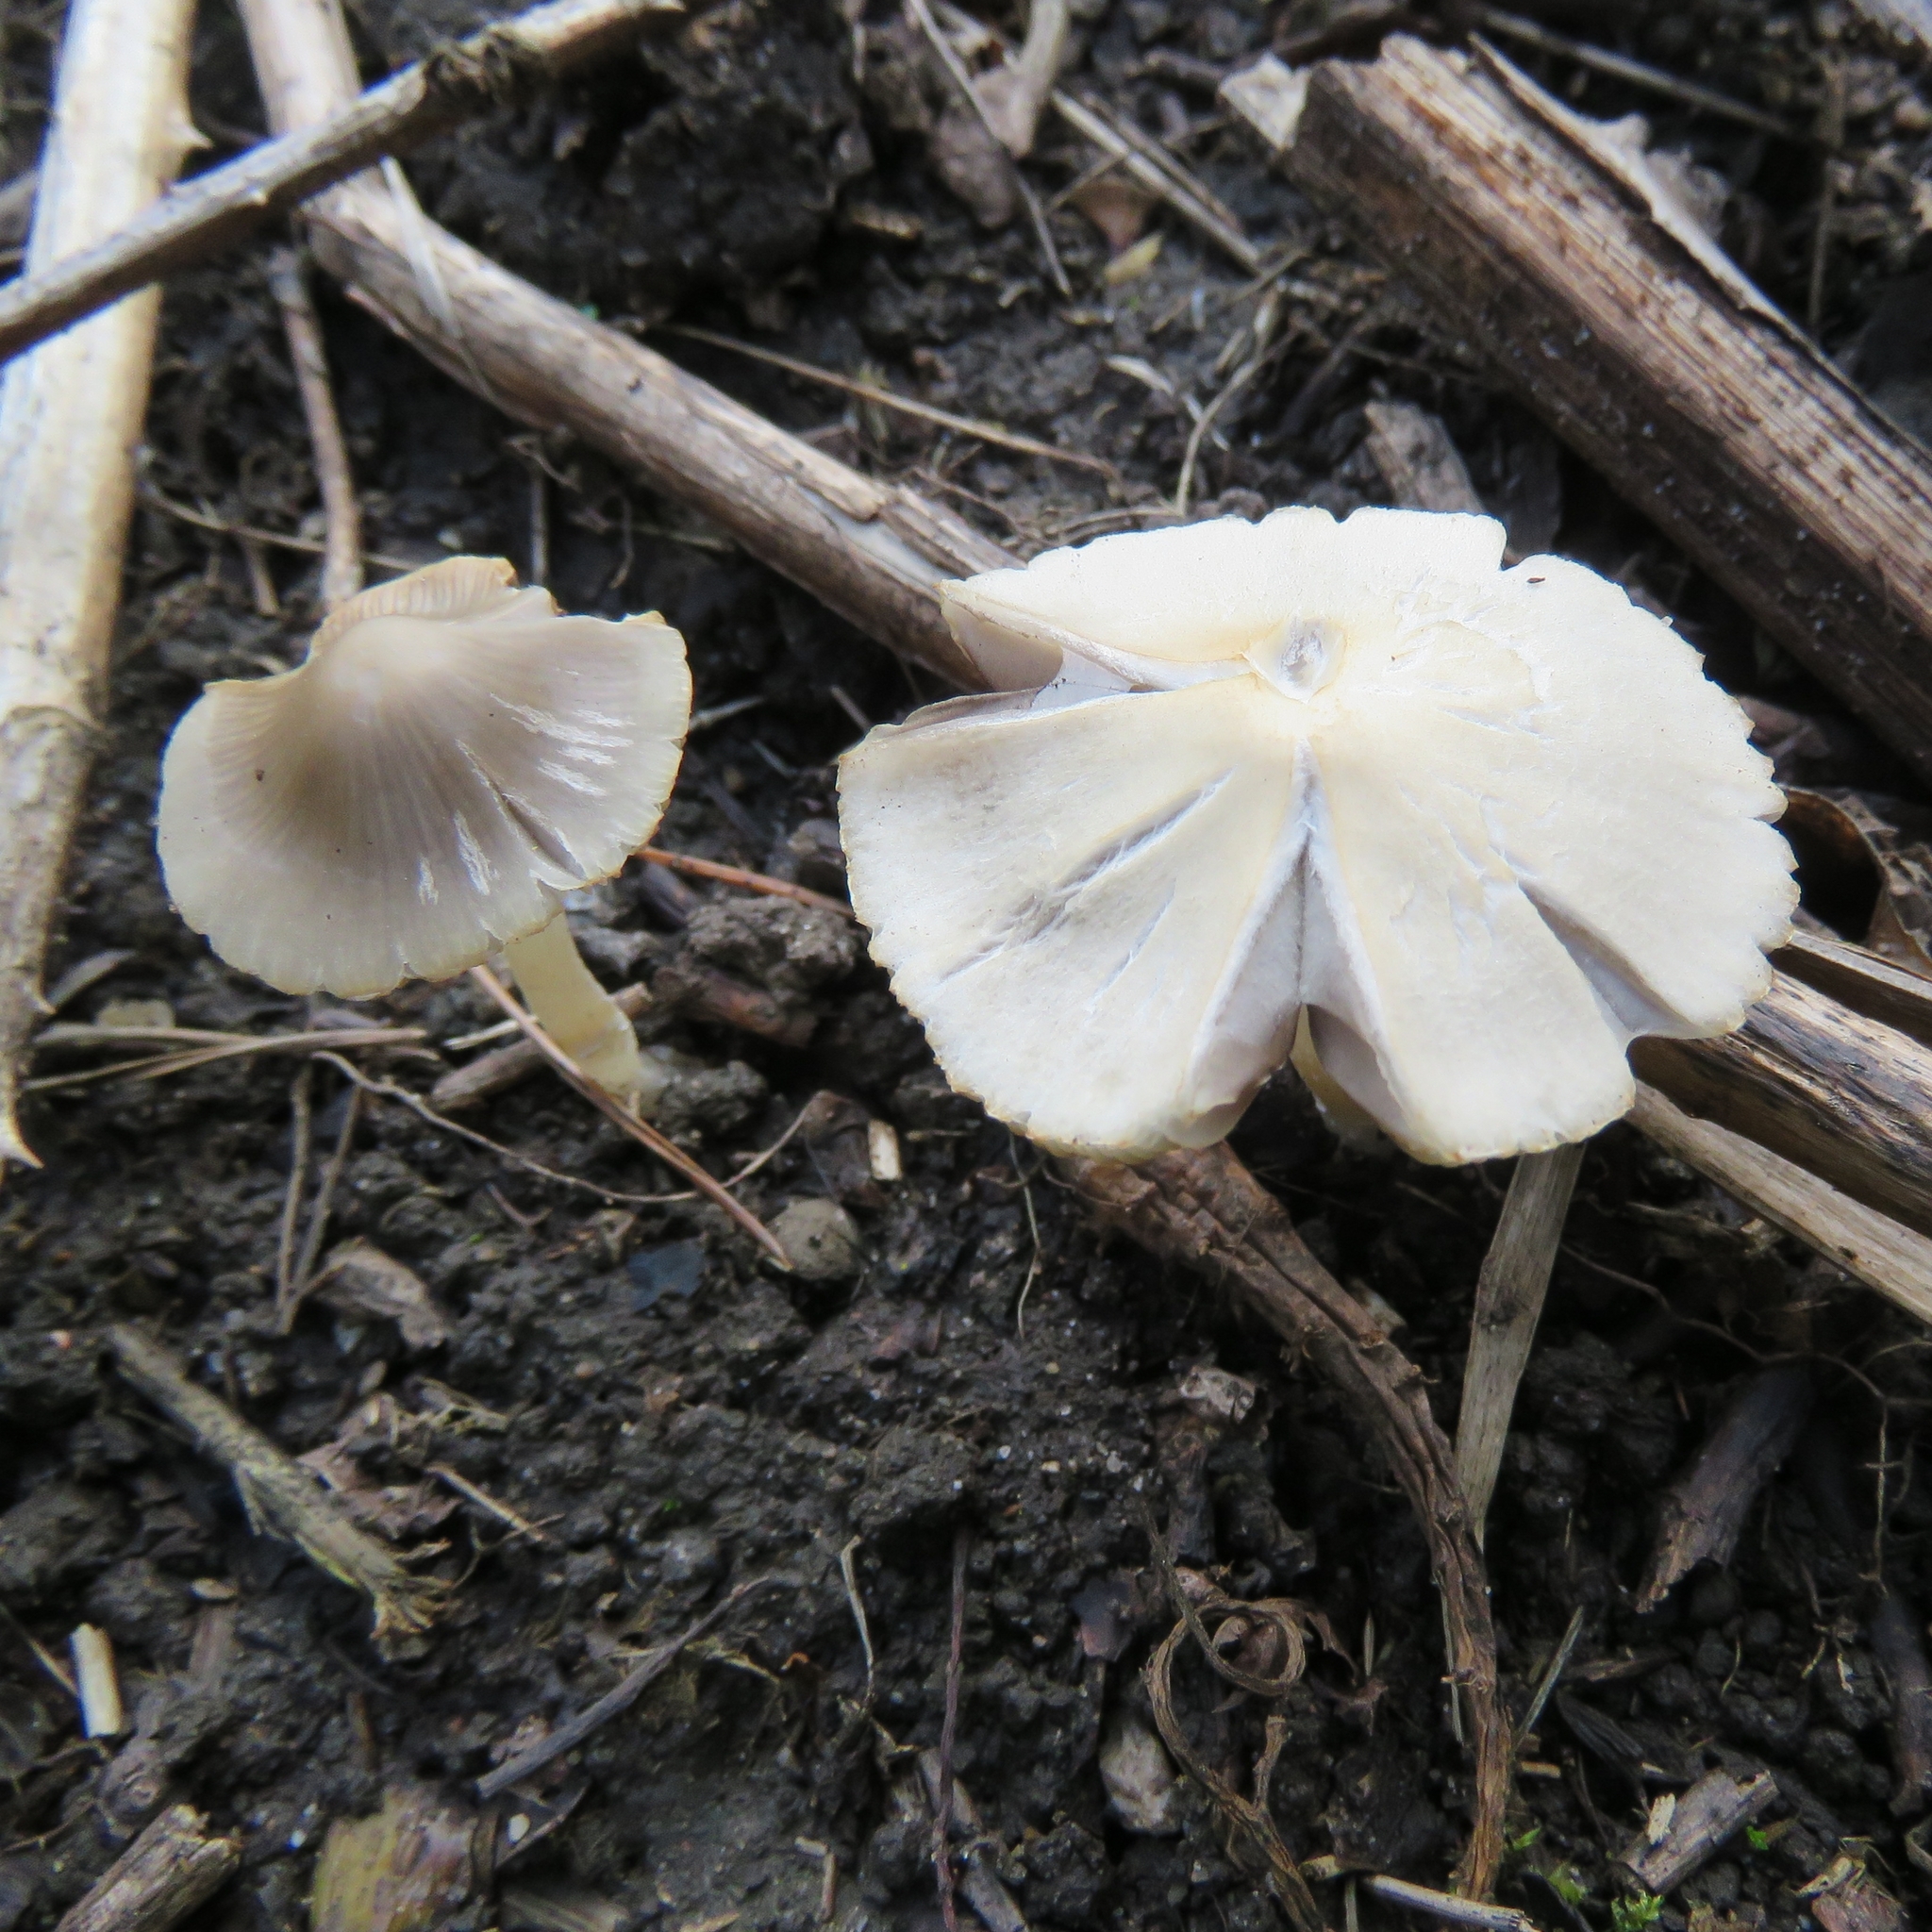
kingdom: Fungi
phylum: Basidiomycota
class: Agaricomycetes
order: Agaricales
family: Psathyrellaceae
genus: Candolleomyces
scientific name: Candolleomyces candolleanus
